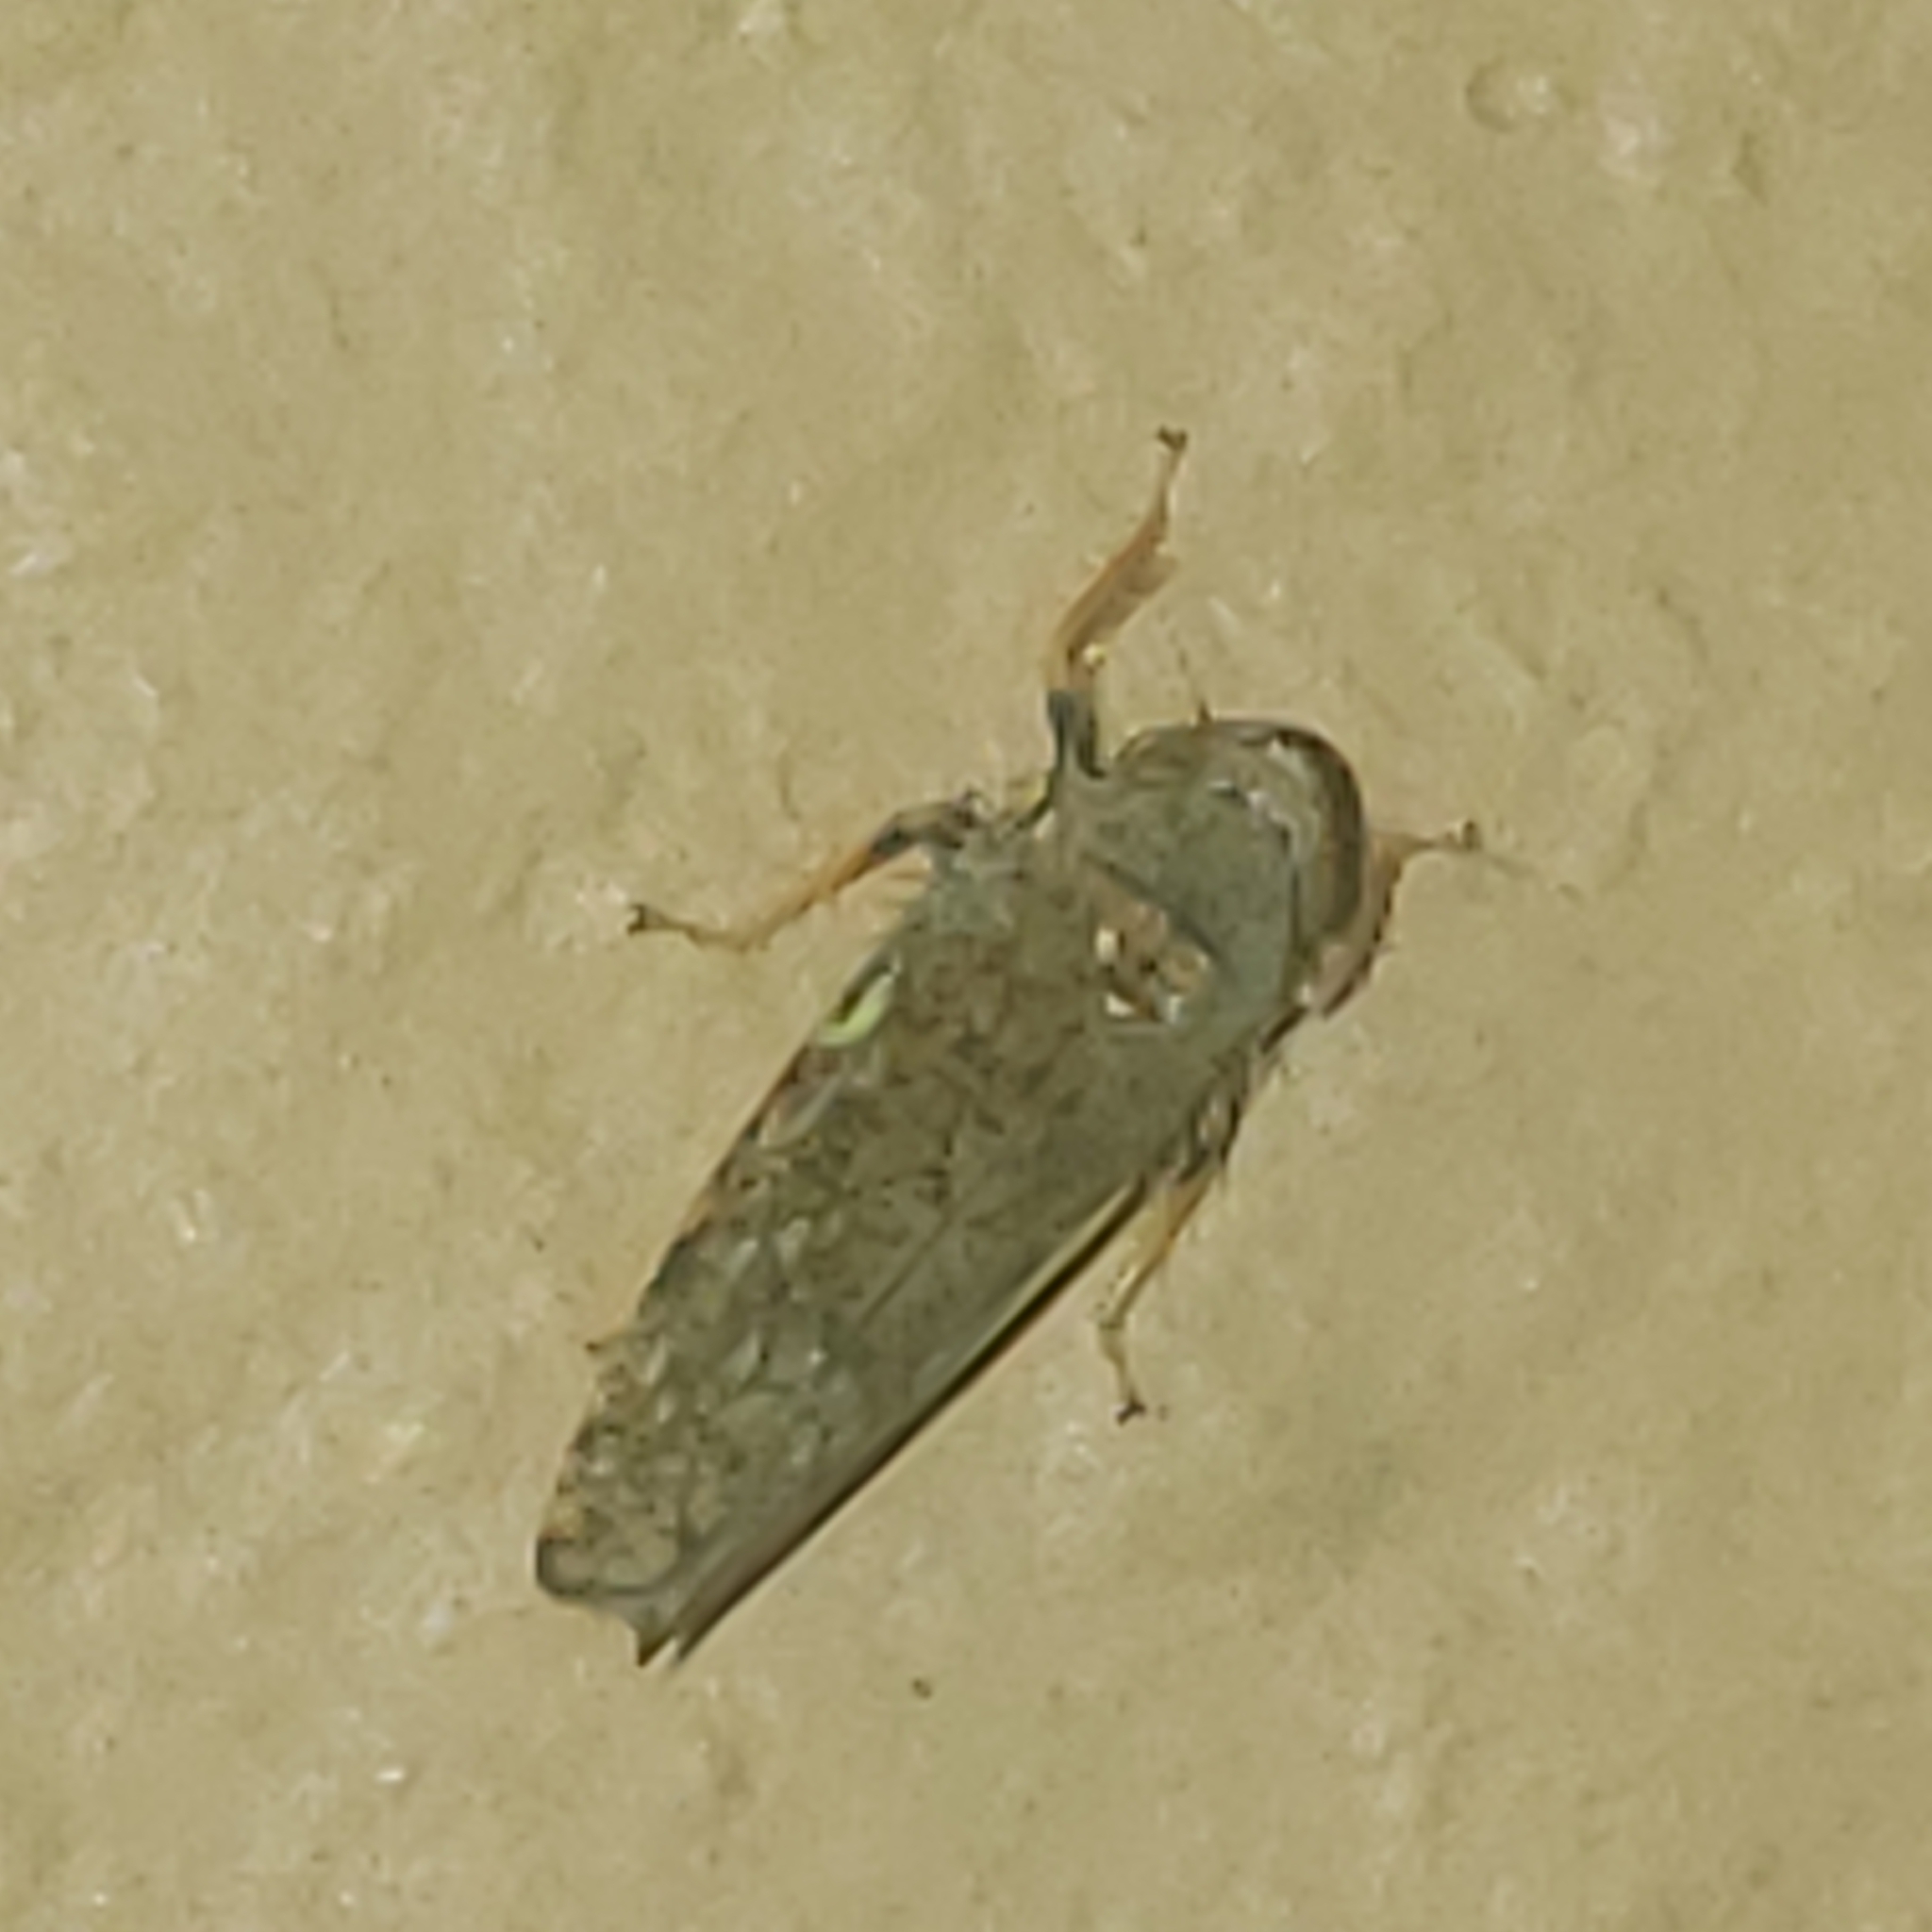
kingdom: Animalia
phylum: Arthropoda
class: Insecta
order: Hemiptera
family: Cicadellidae
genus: Orientus
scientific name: Orientus ishidae
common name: Japanese leafhopper
